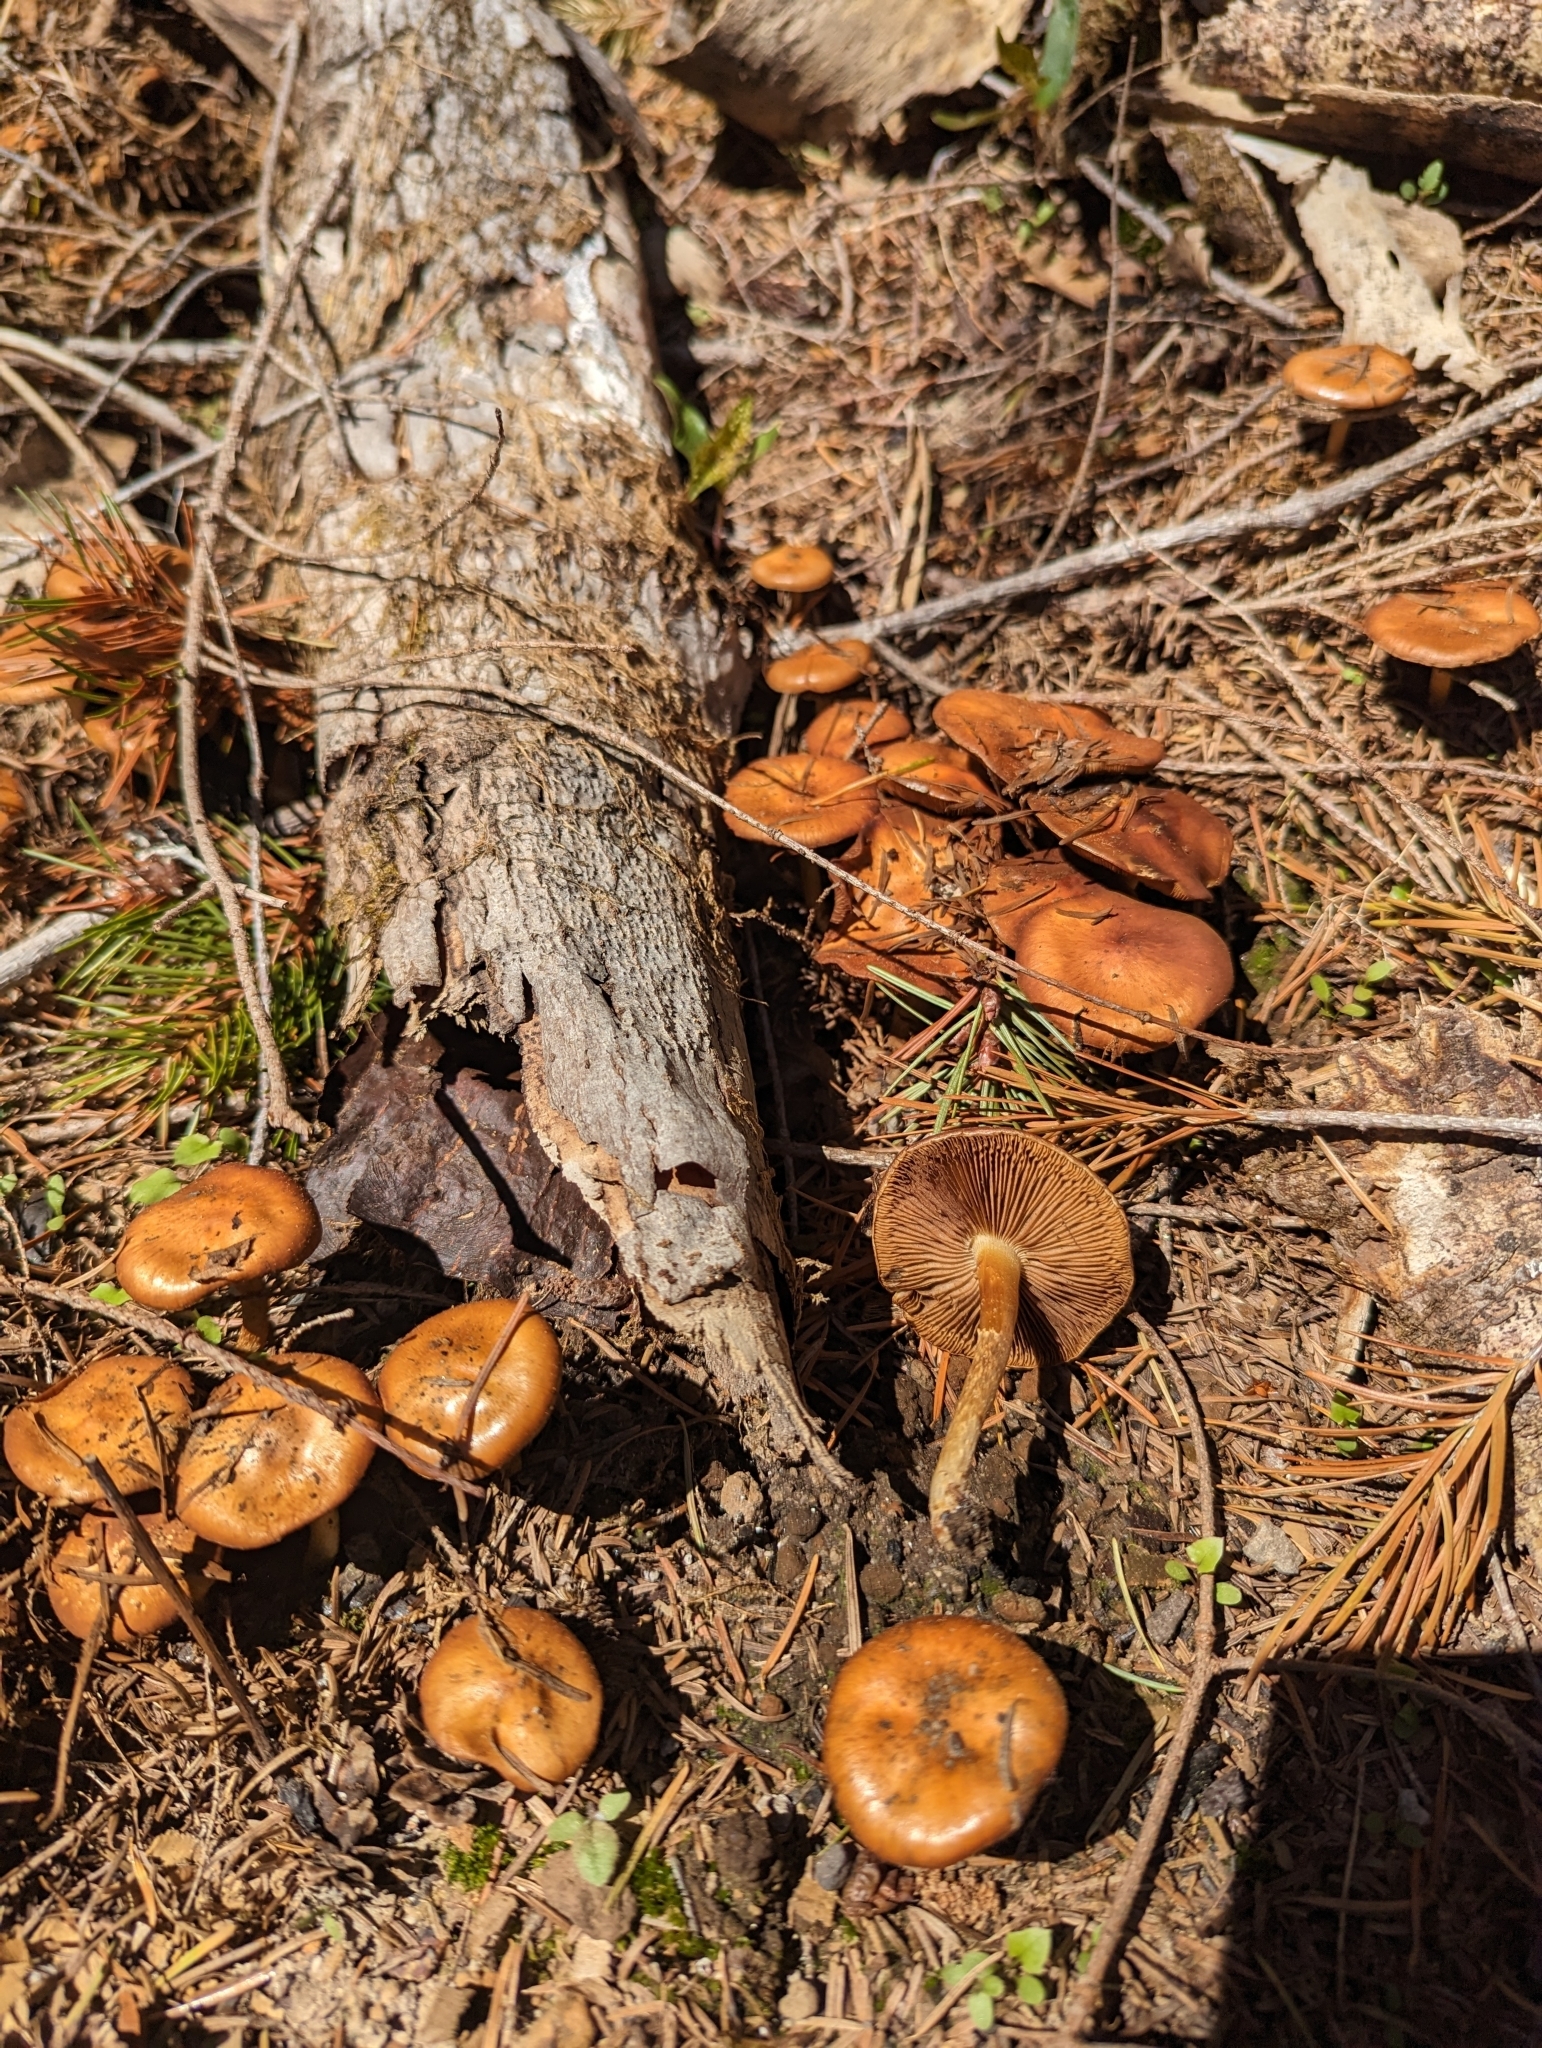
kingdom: Fungi
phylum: Basidiomycota
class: Agaricomycetes
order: Agaricales
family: Strophariaceae
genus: Pholiota
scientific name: Pholiota carbonaria
